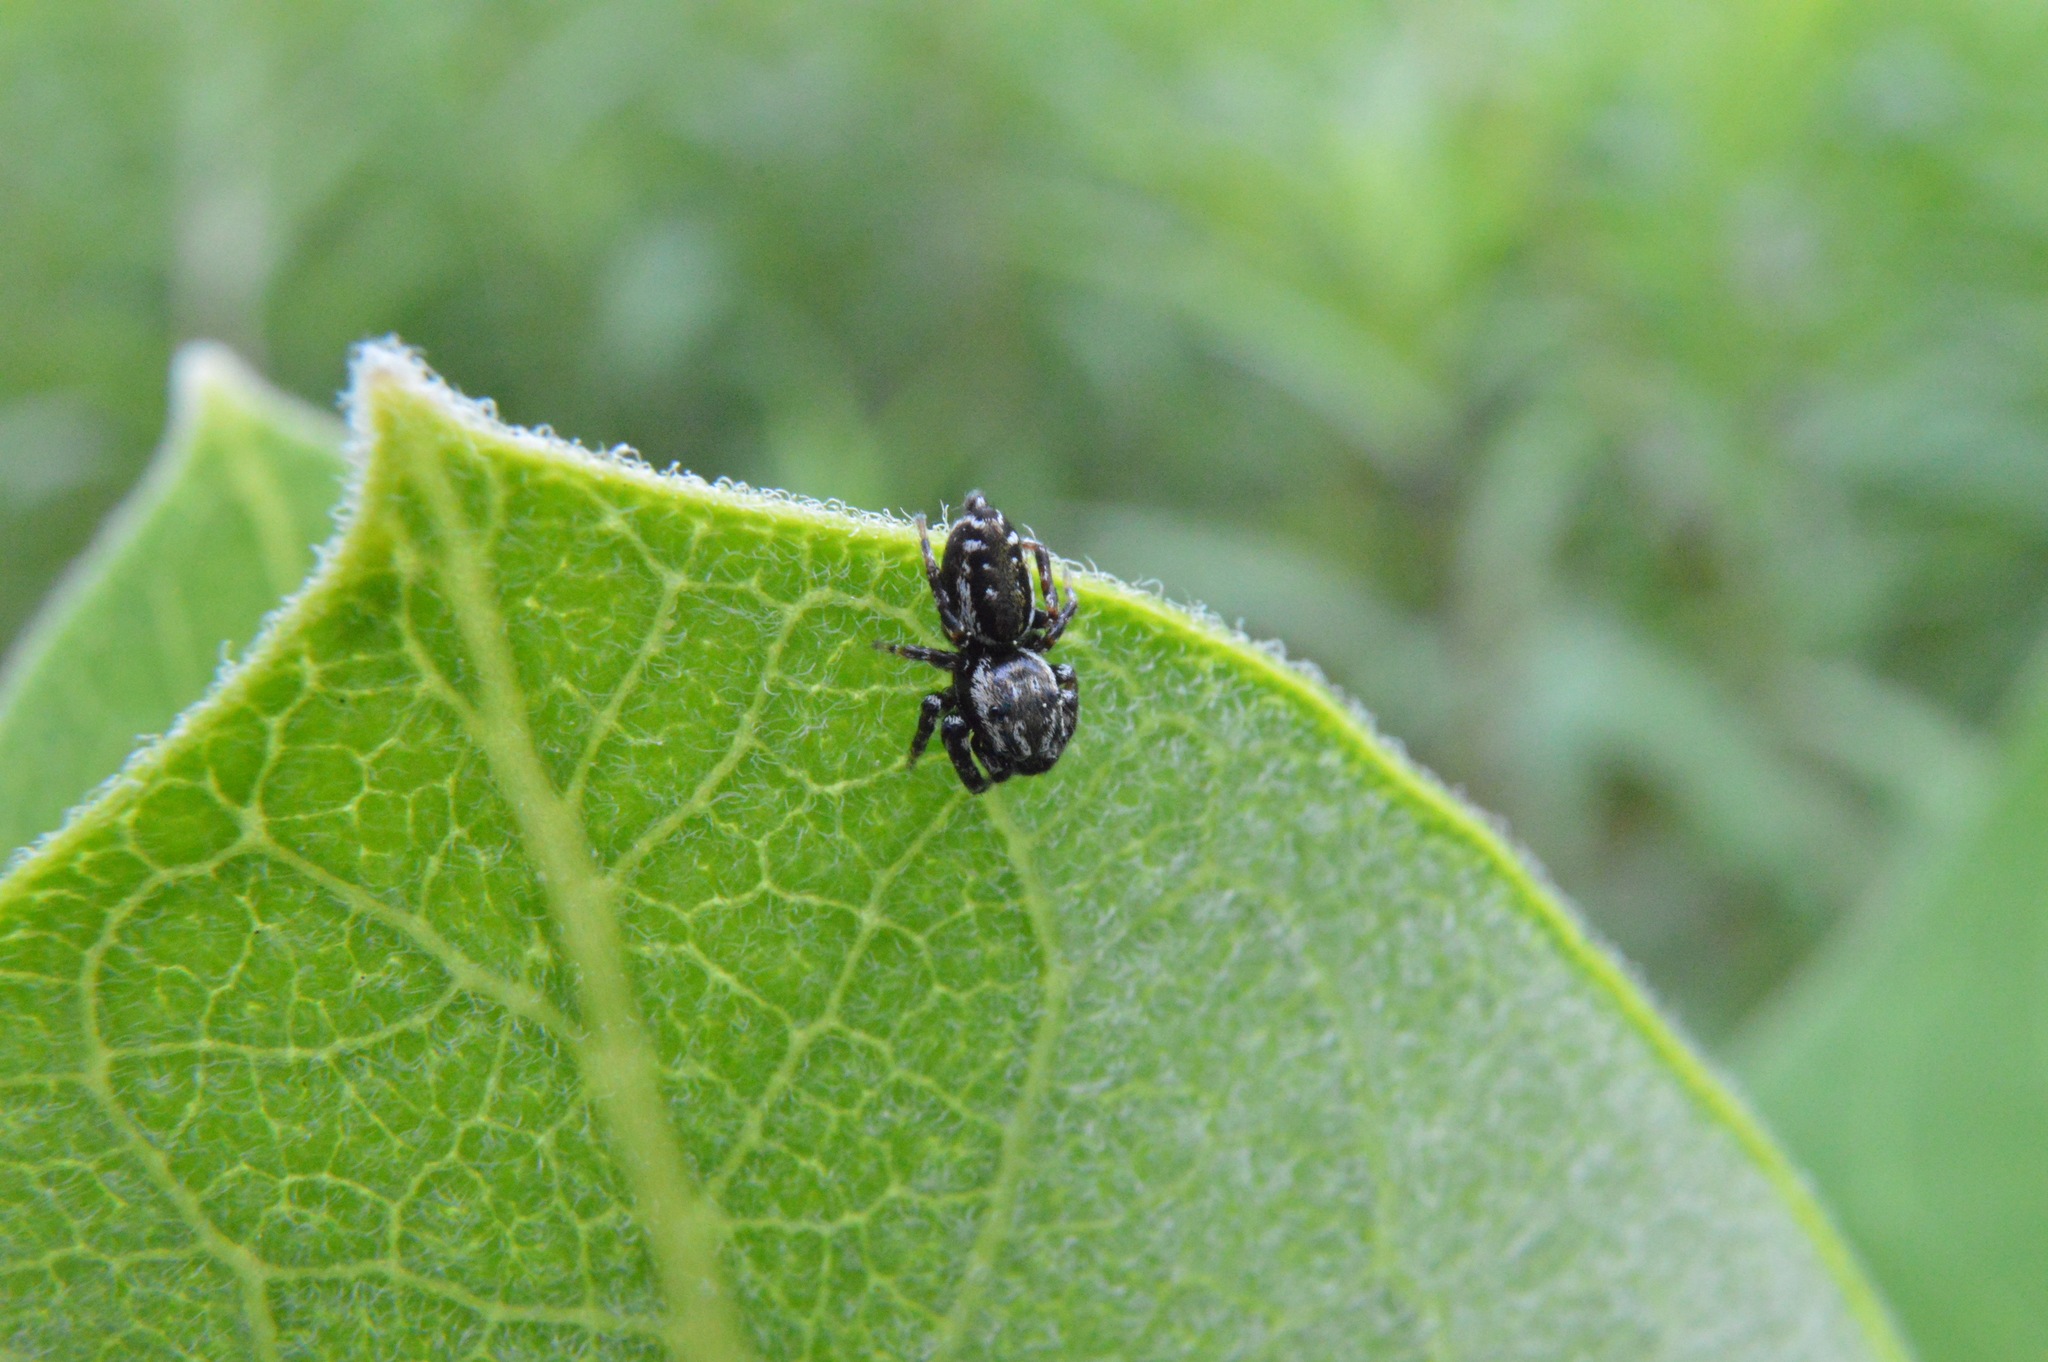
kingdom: Animalia
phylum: Arthropoda
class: Arachnida
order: Araneae
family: Salticidae
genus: Pelegrina
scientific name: Pelegrina galathea
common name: Jumping spiders
